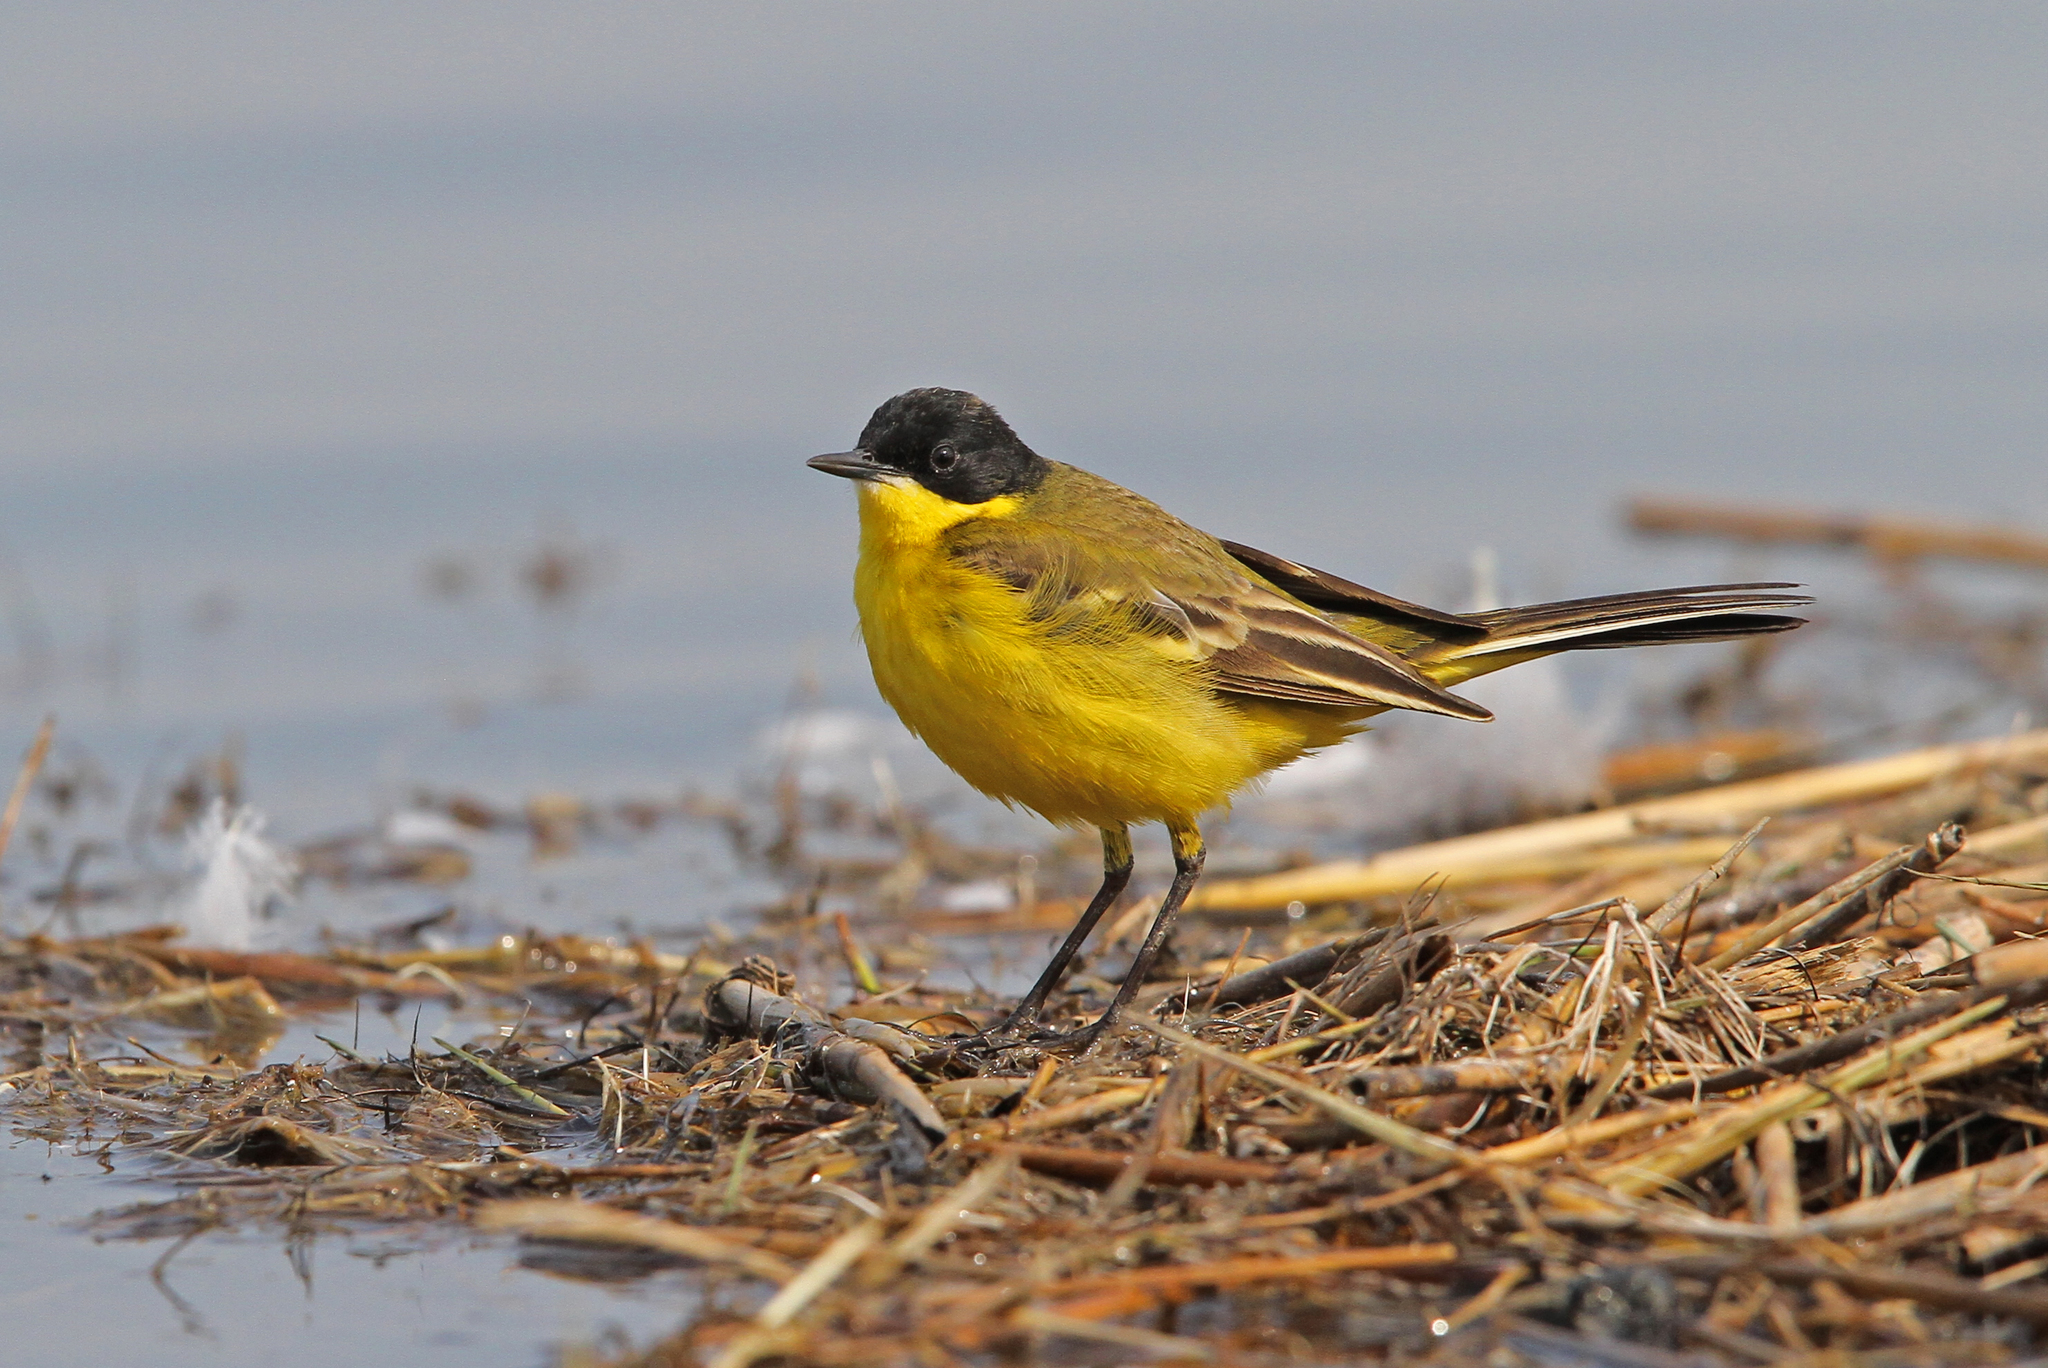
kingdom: Animalia
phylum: Chordata
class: Aves
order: Passeriformes
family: Motacillidae
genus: Motacilla
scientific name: Motacilla flava
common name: Western yellow wagtail
